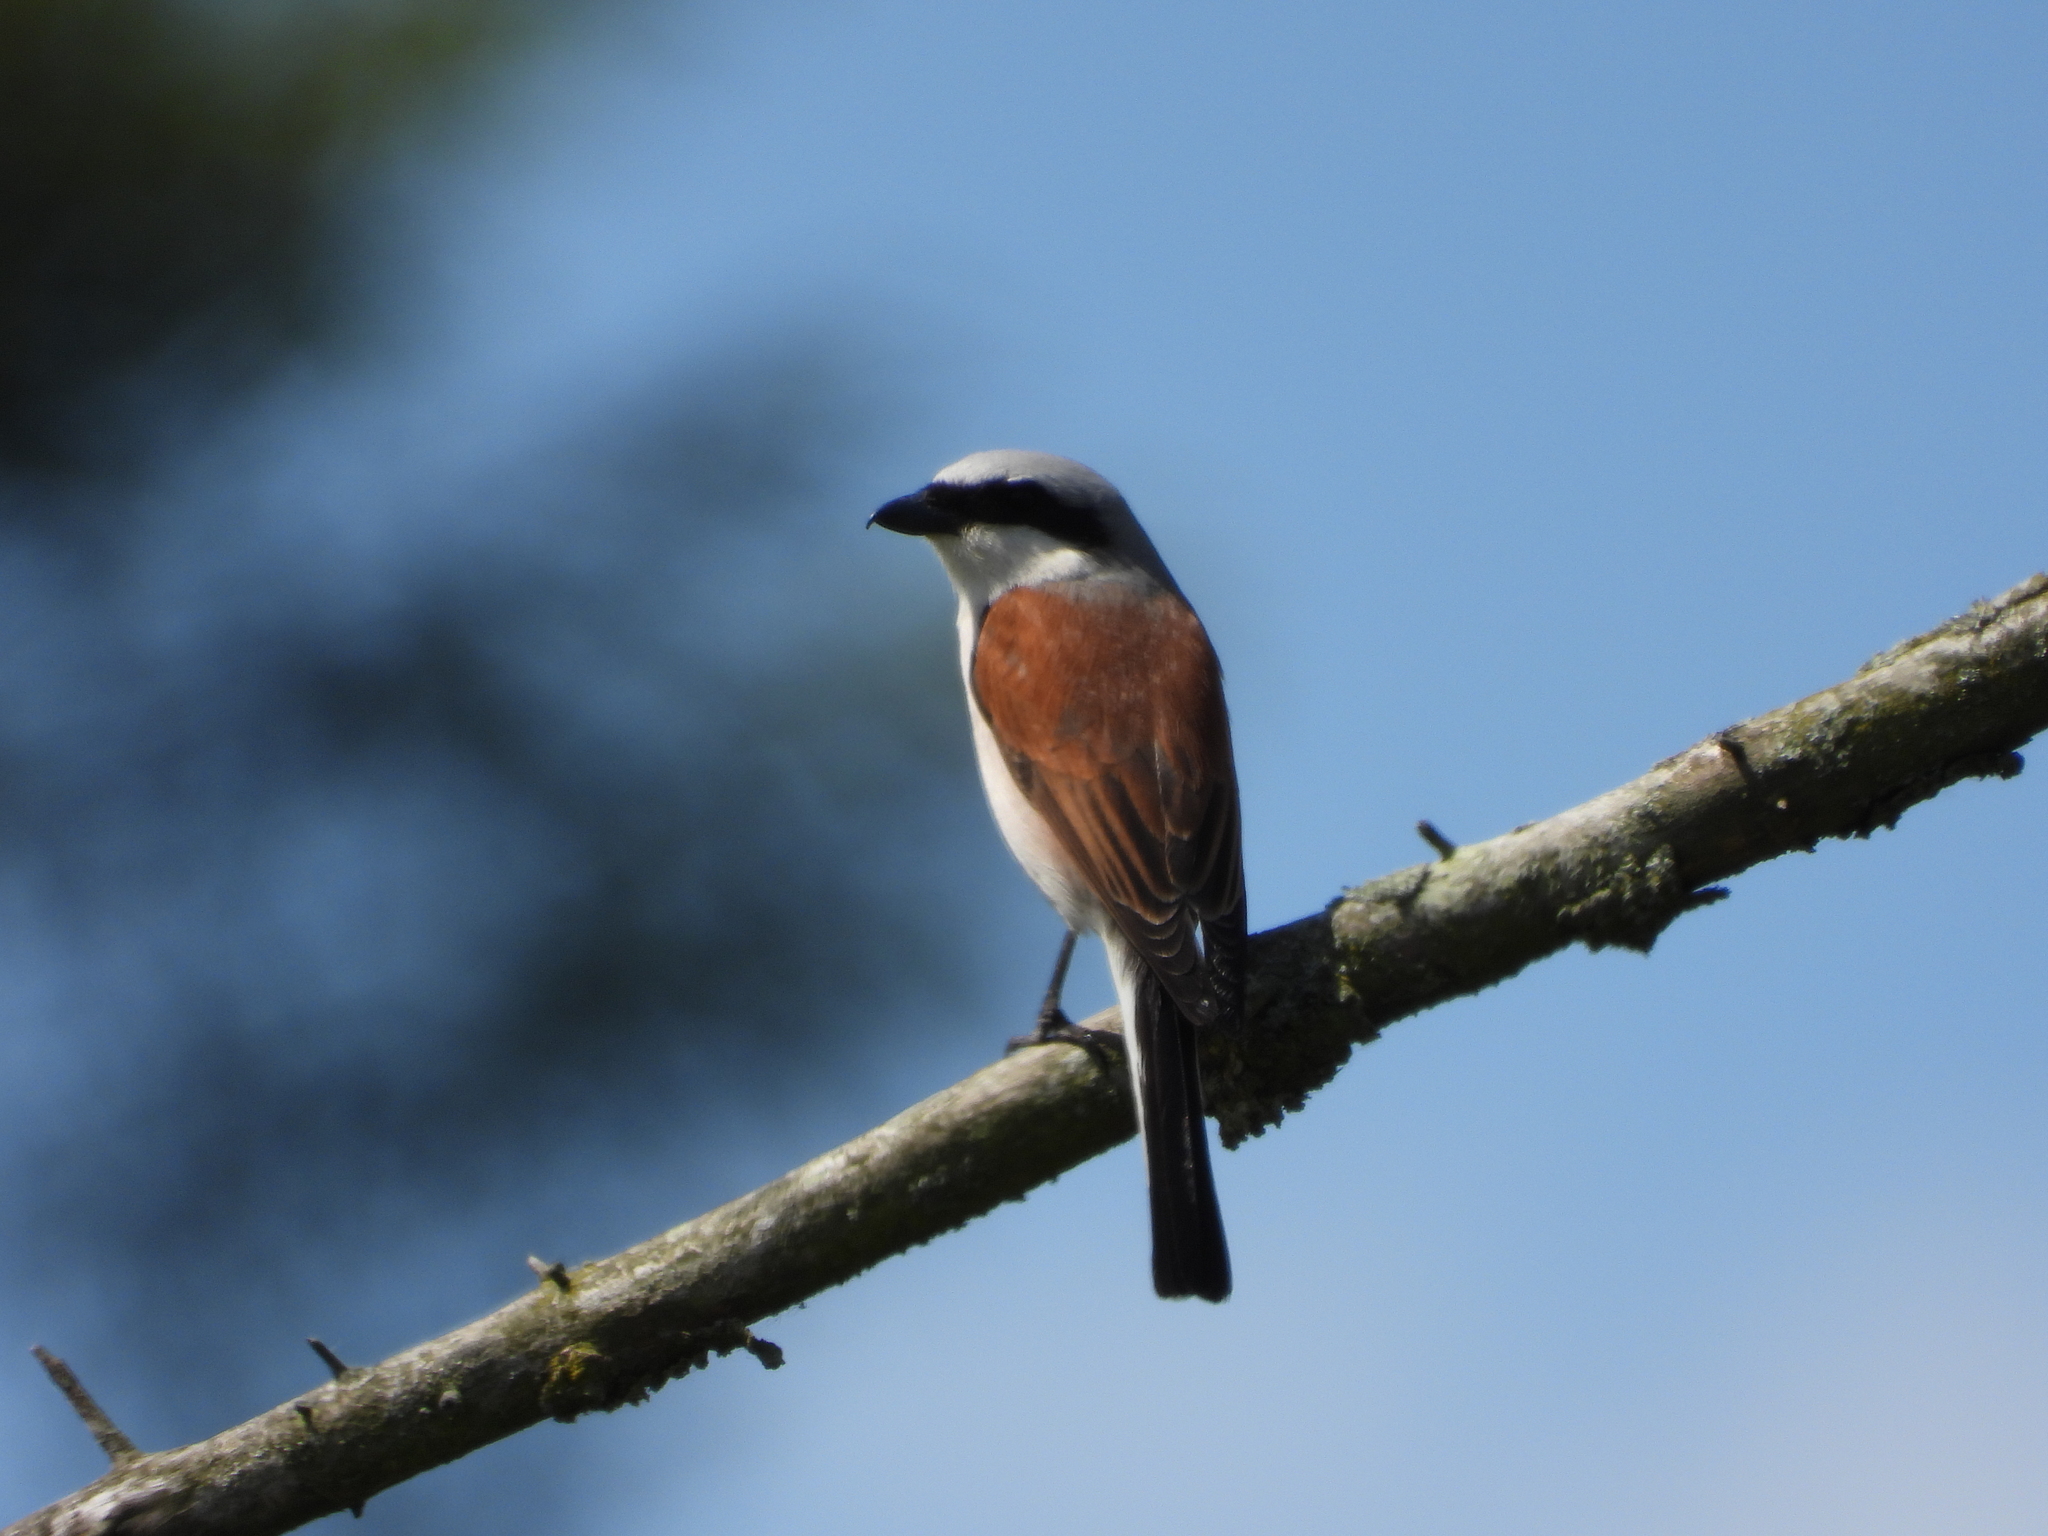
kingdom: Animalia
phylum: Chordata
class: Aves
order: Passeriformes
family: Laniidae
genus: Lanius
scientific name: Lanius collurio
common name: Red-backed shrike
